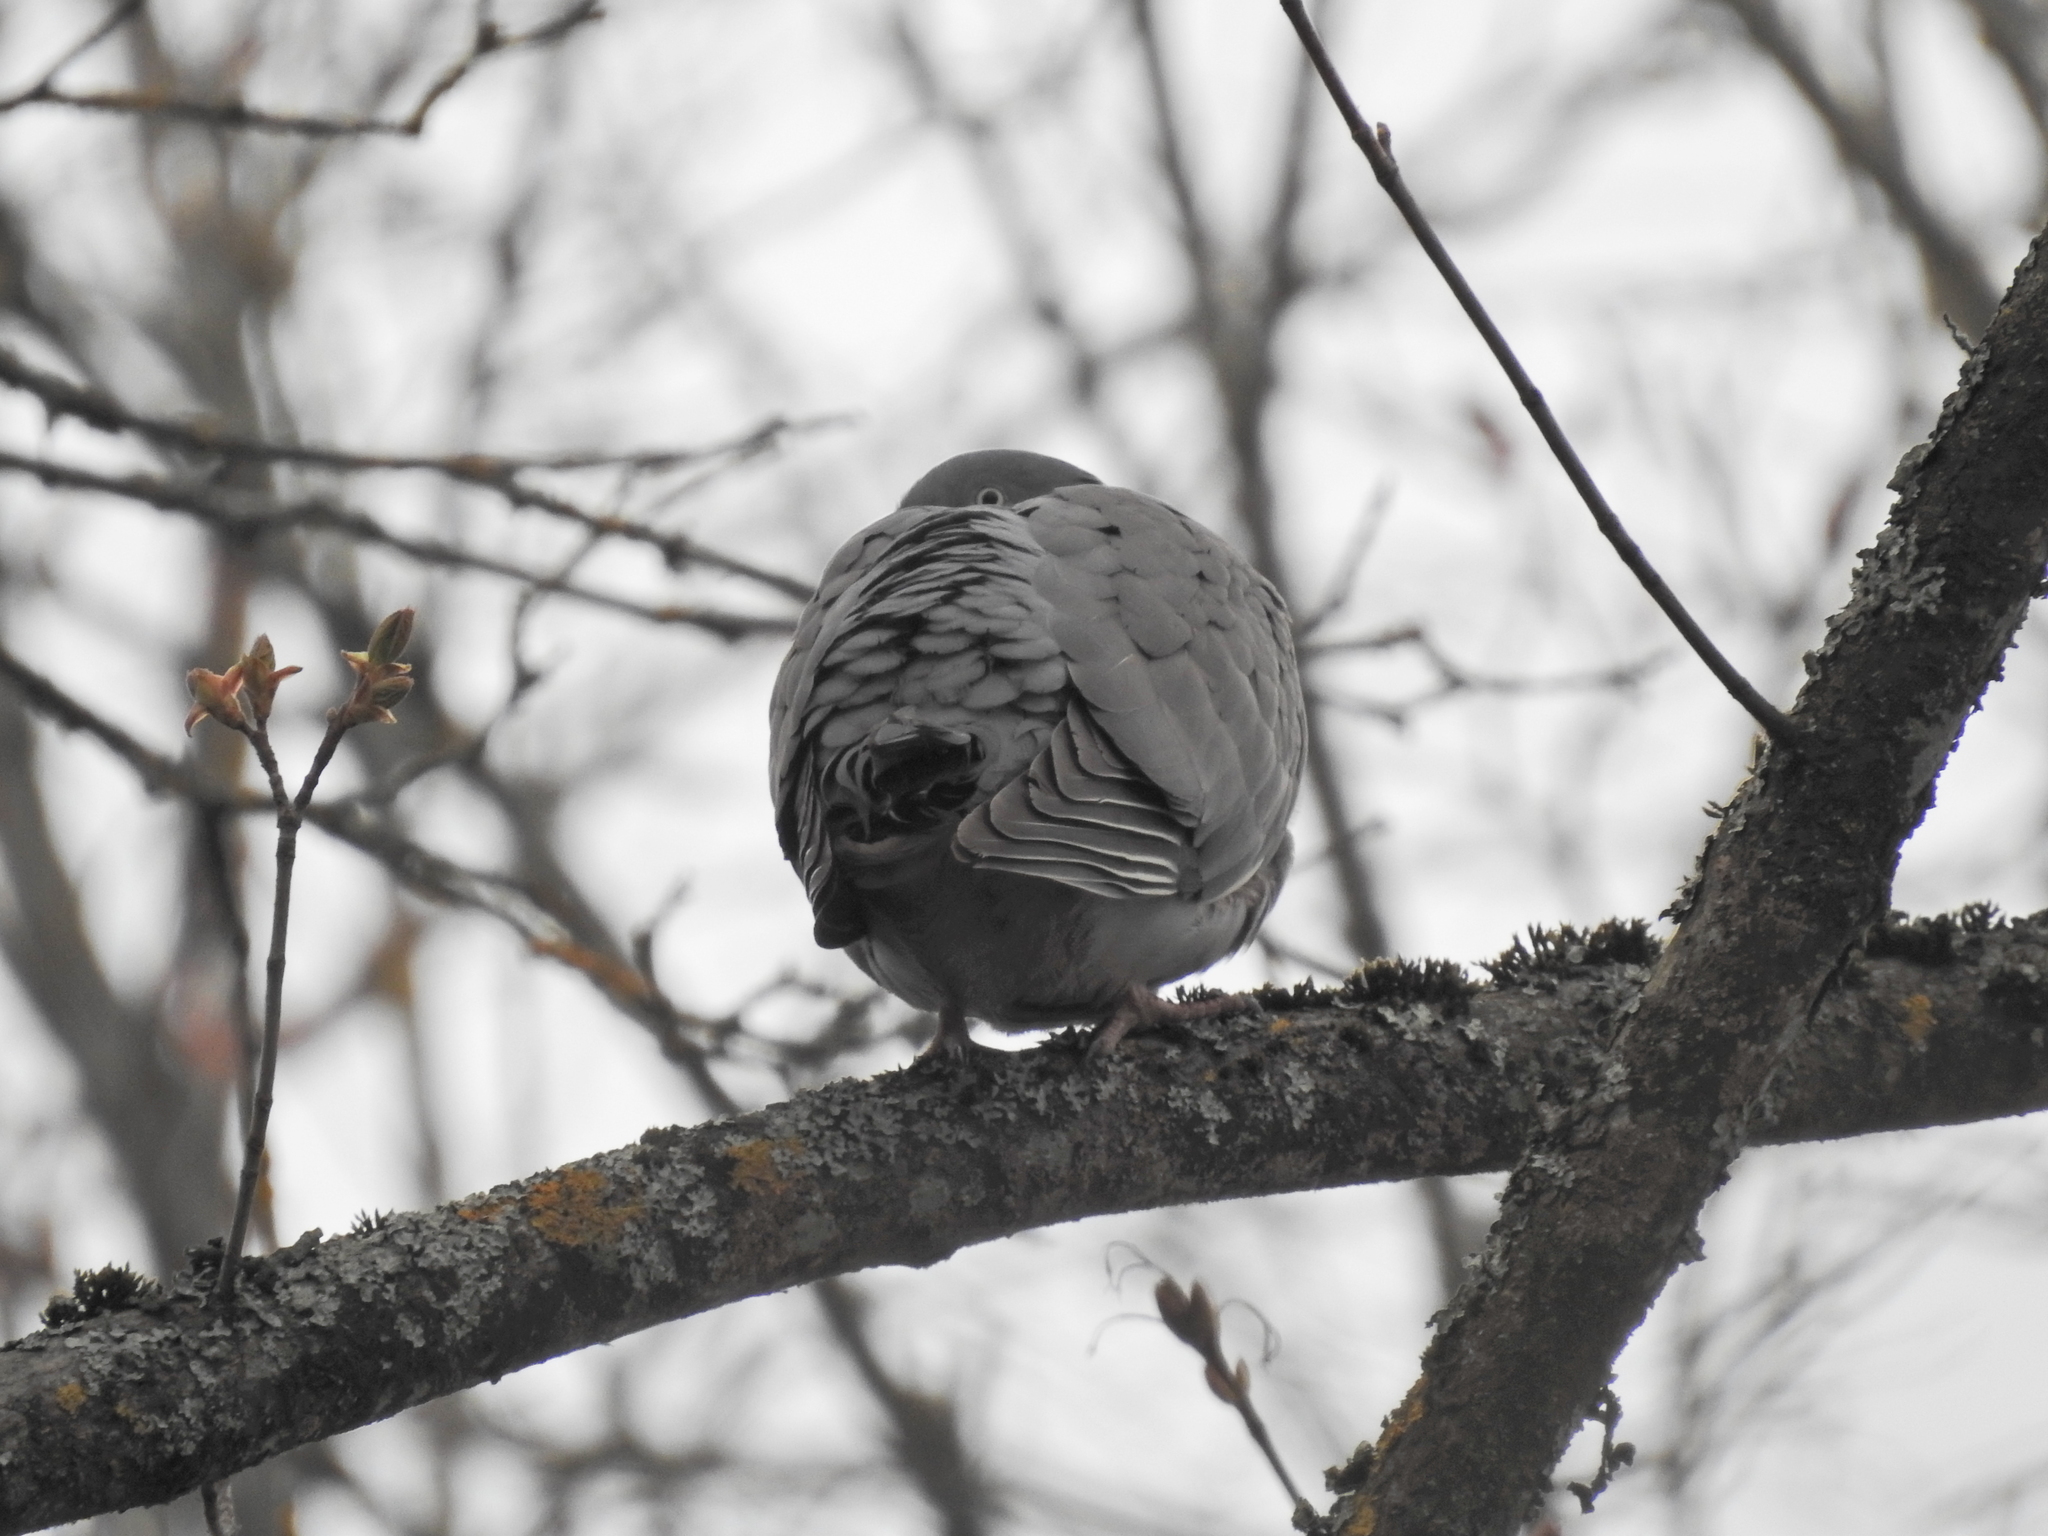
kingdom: Animalia
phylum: Chordata
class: Aves
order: Columbiformes
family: Columbidae
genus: Columba
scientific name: Columba palumbus
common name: Common wood pigeon
